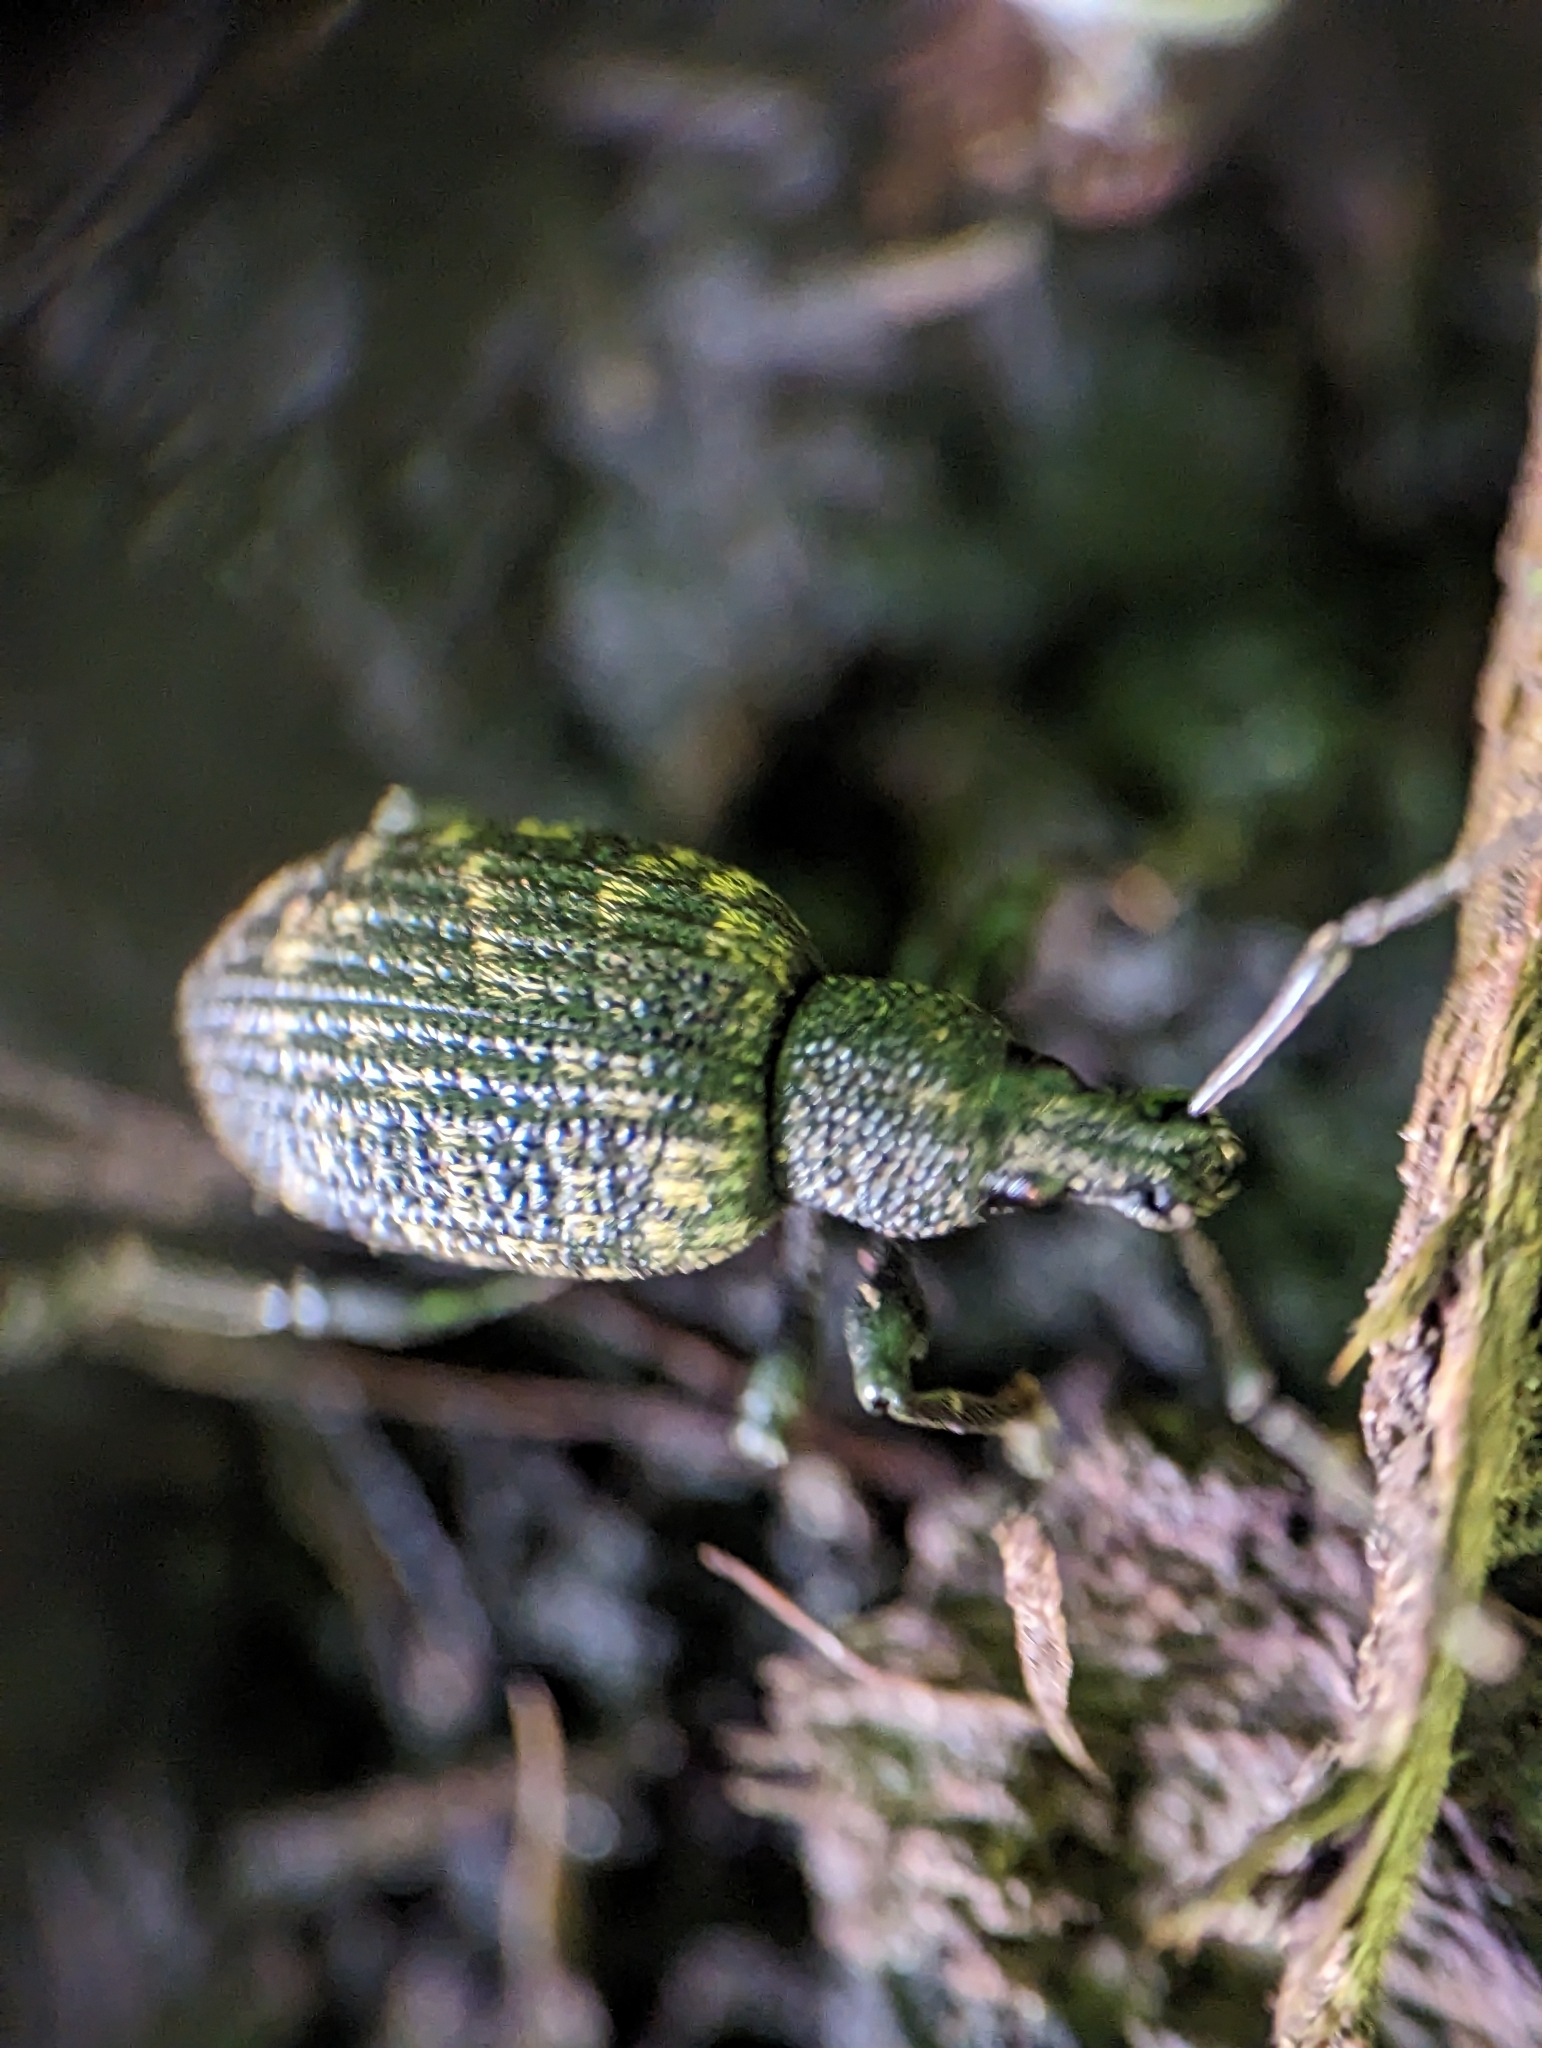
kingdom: Animalia
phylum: Arthropoda
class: Insecta
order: Coleoptera
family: Curculionidae
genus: Otiorhynchus
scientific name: Otiorhynchus sulcatus
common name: Black vine weevil
